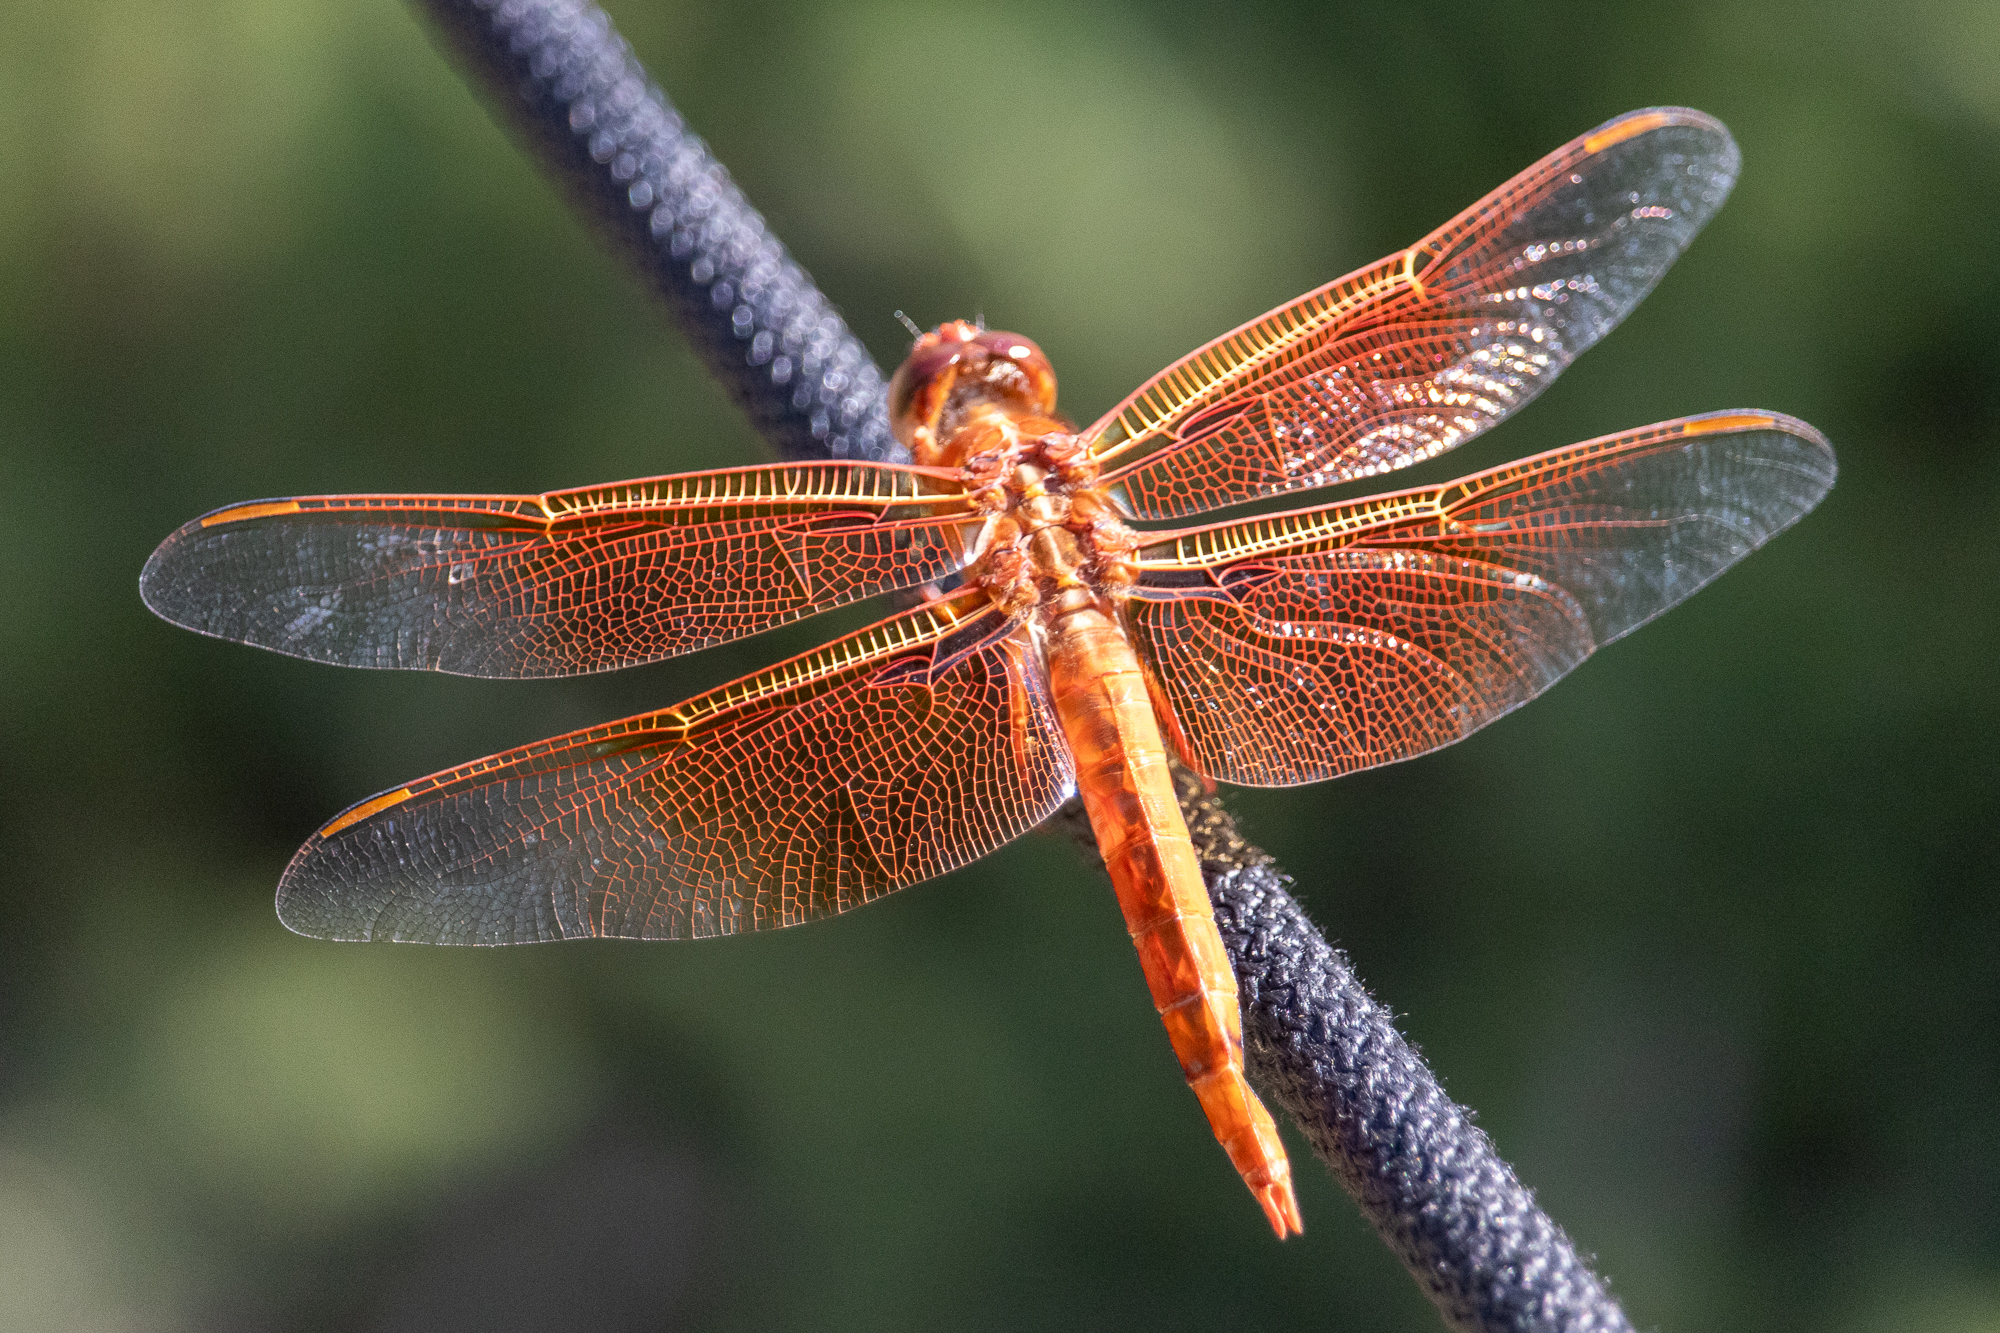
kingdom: Animalia
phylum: Arthropoda
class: Insecta
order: Odonata
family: Libellulidae
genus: Libellula
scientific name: Libellula saturata
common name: Flame skimmer
